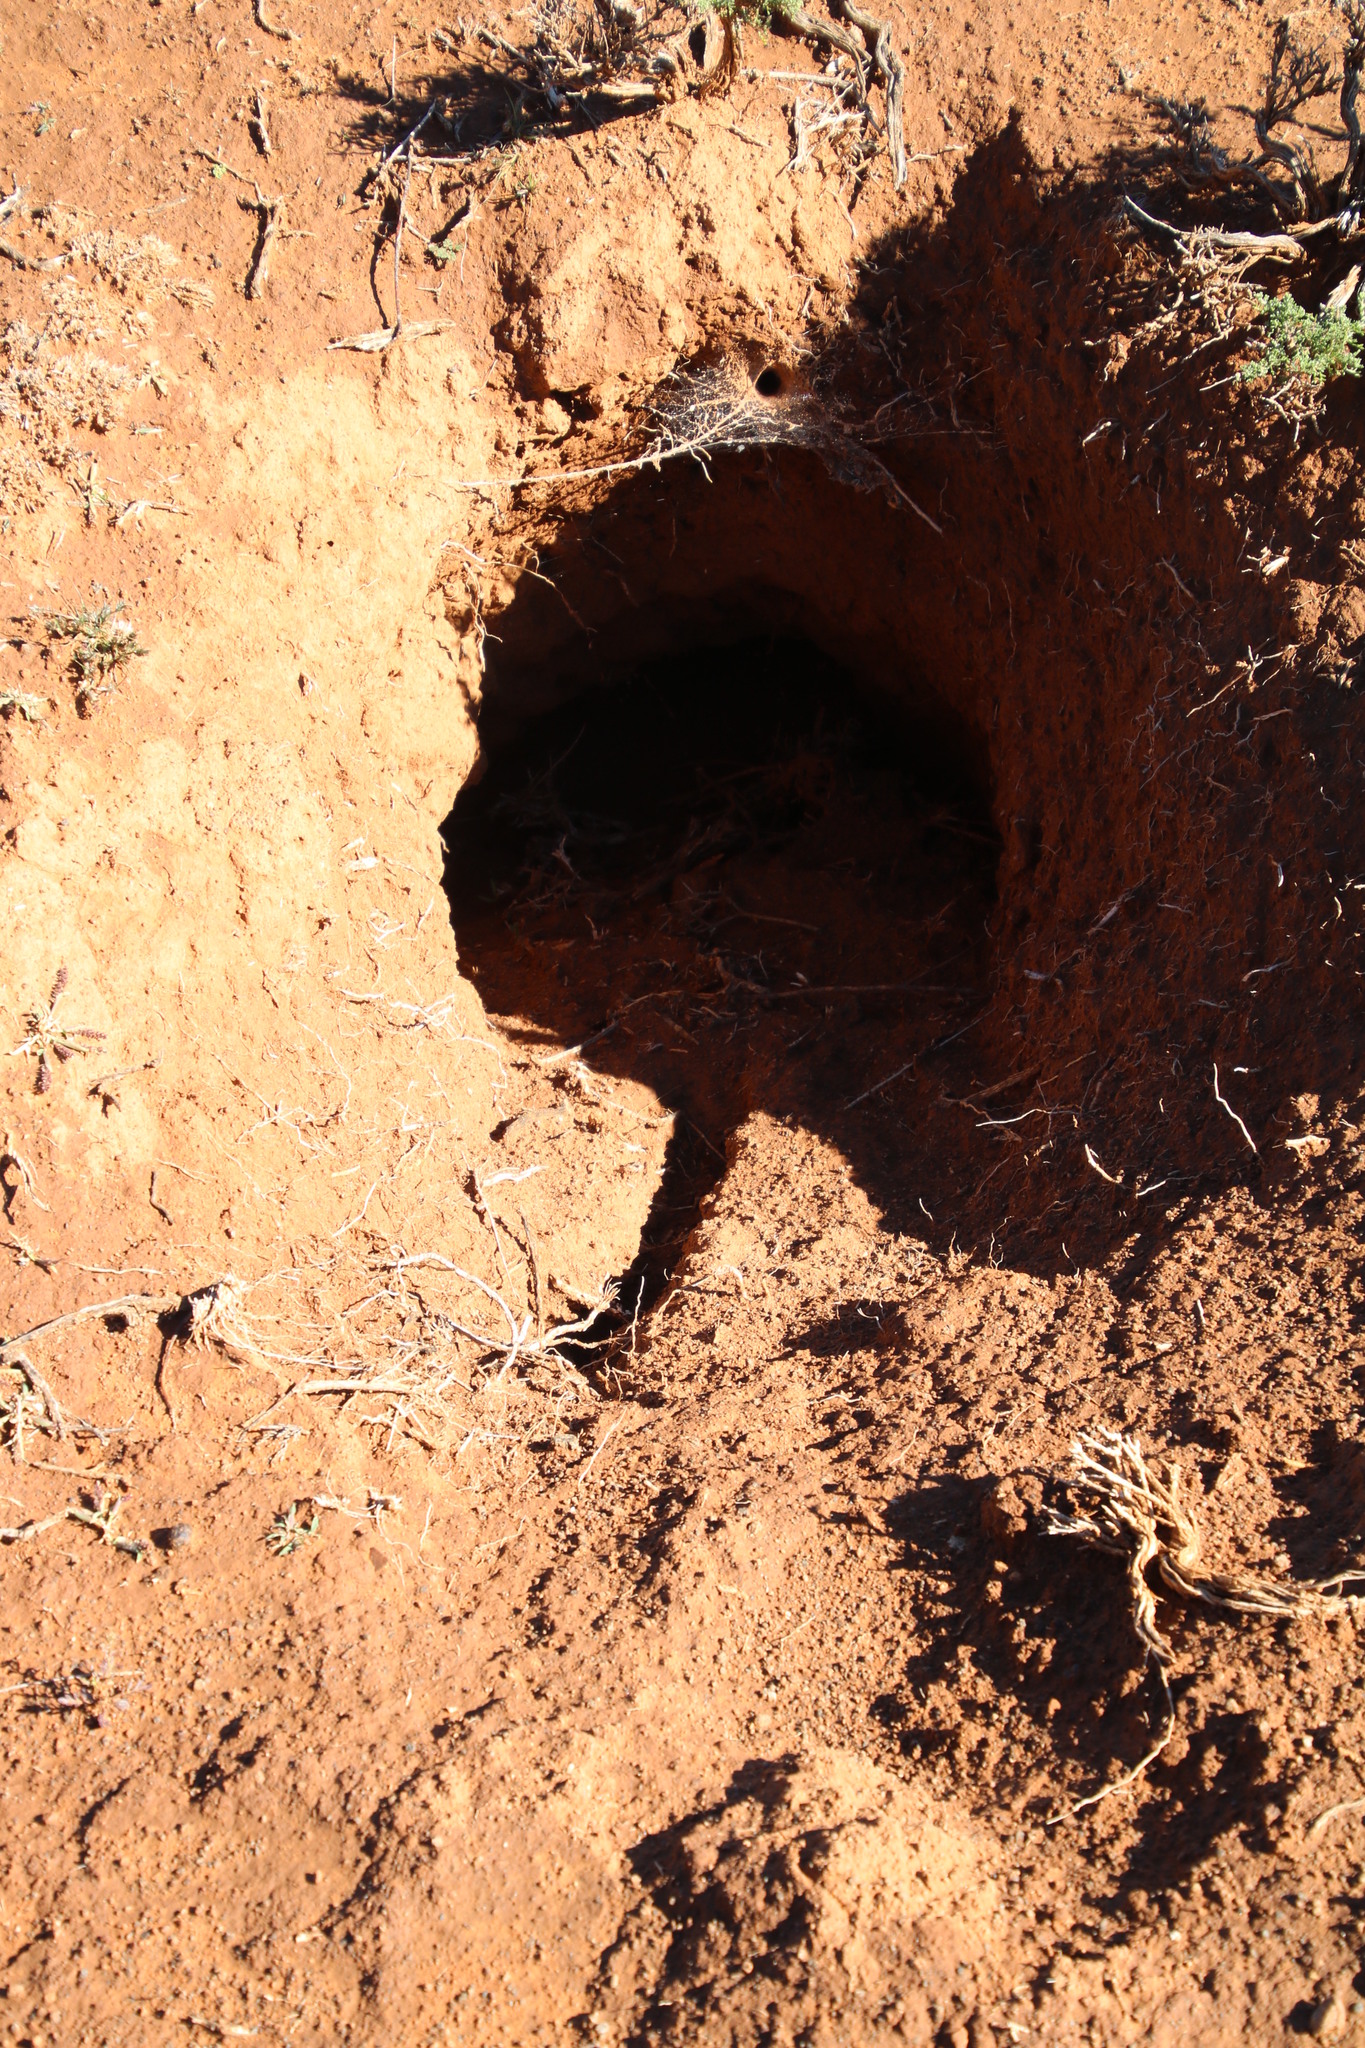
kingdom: Animalia
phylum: Chordata
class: Mammalia
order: Tubulidentata
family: Orycteropodidae
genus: Orycteropus
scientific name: Orycteropus afer
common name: Aardvark
